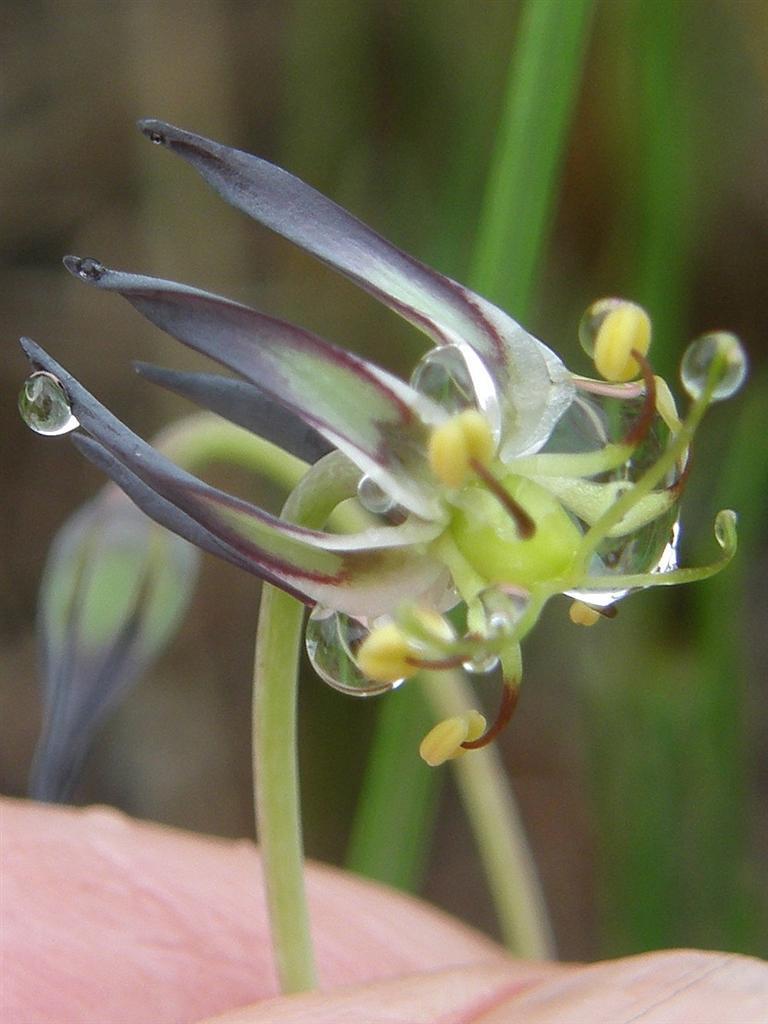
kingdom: Plantae
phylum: Tracheophyta
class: Liliopsida
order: Liliales
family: Colchicaceae
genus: Ornithoglossum
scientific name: Ornithoglossum viride
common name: Cape poison-onion
